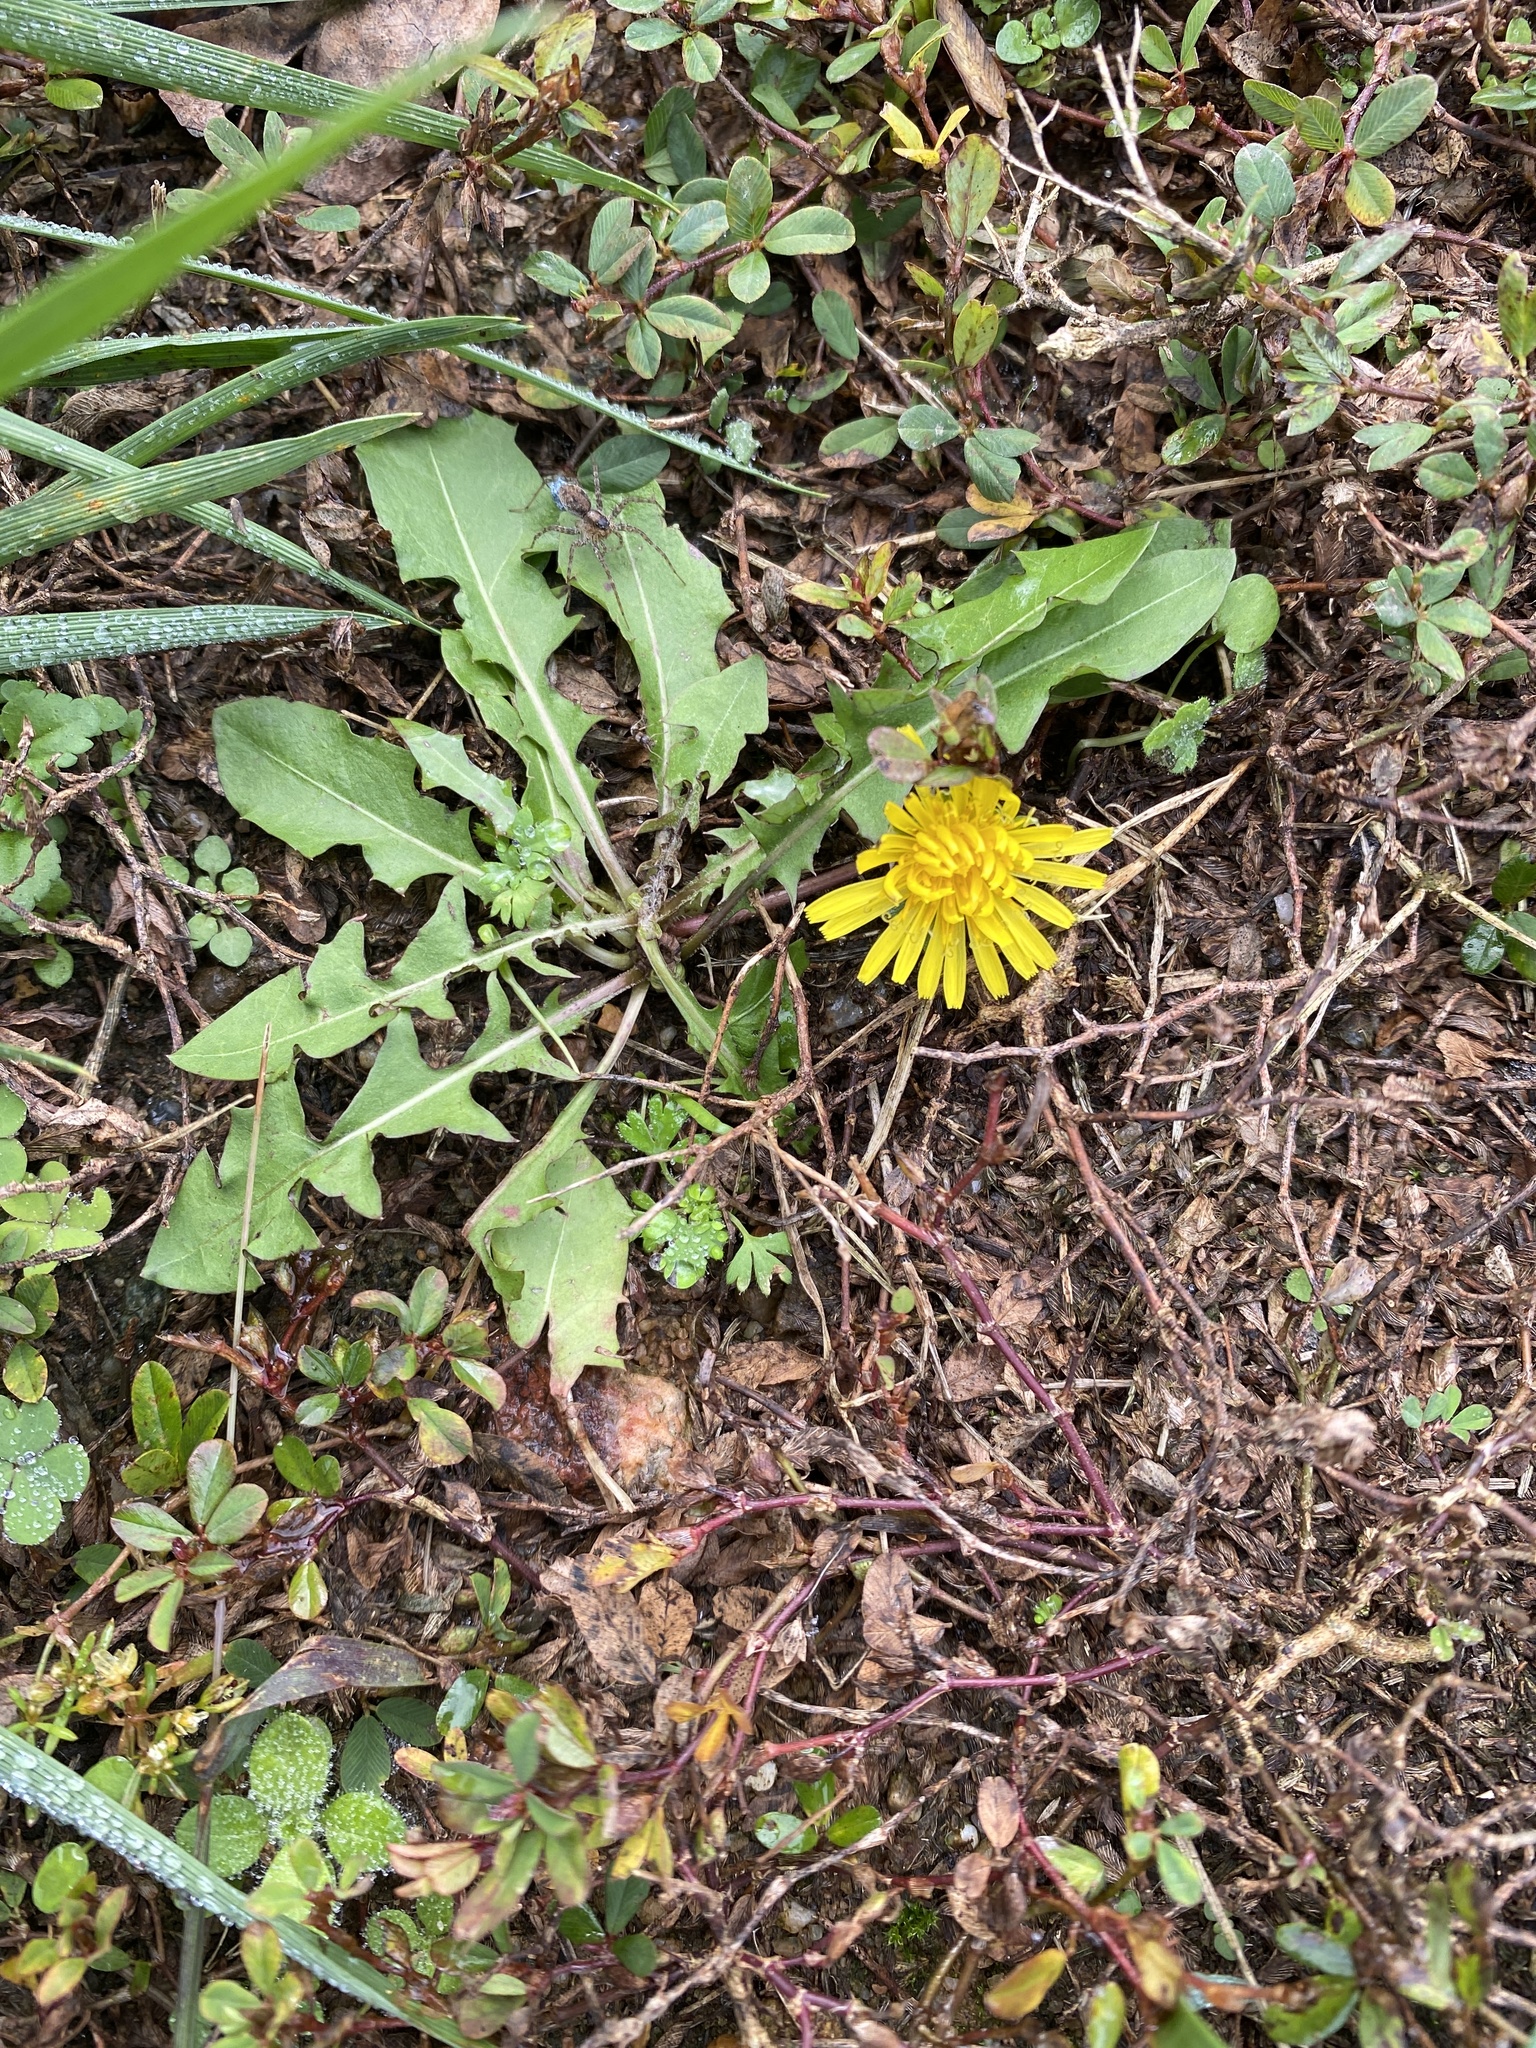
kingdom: Plantae
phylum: Tracheophyta
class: Magnoliopsida
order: Asterales
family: Asteraceae
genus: Taraxacum
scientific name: Taraxacum officinale
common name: Common dandelion
